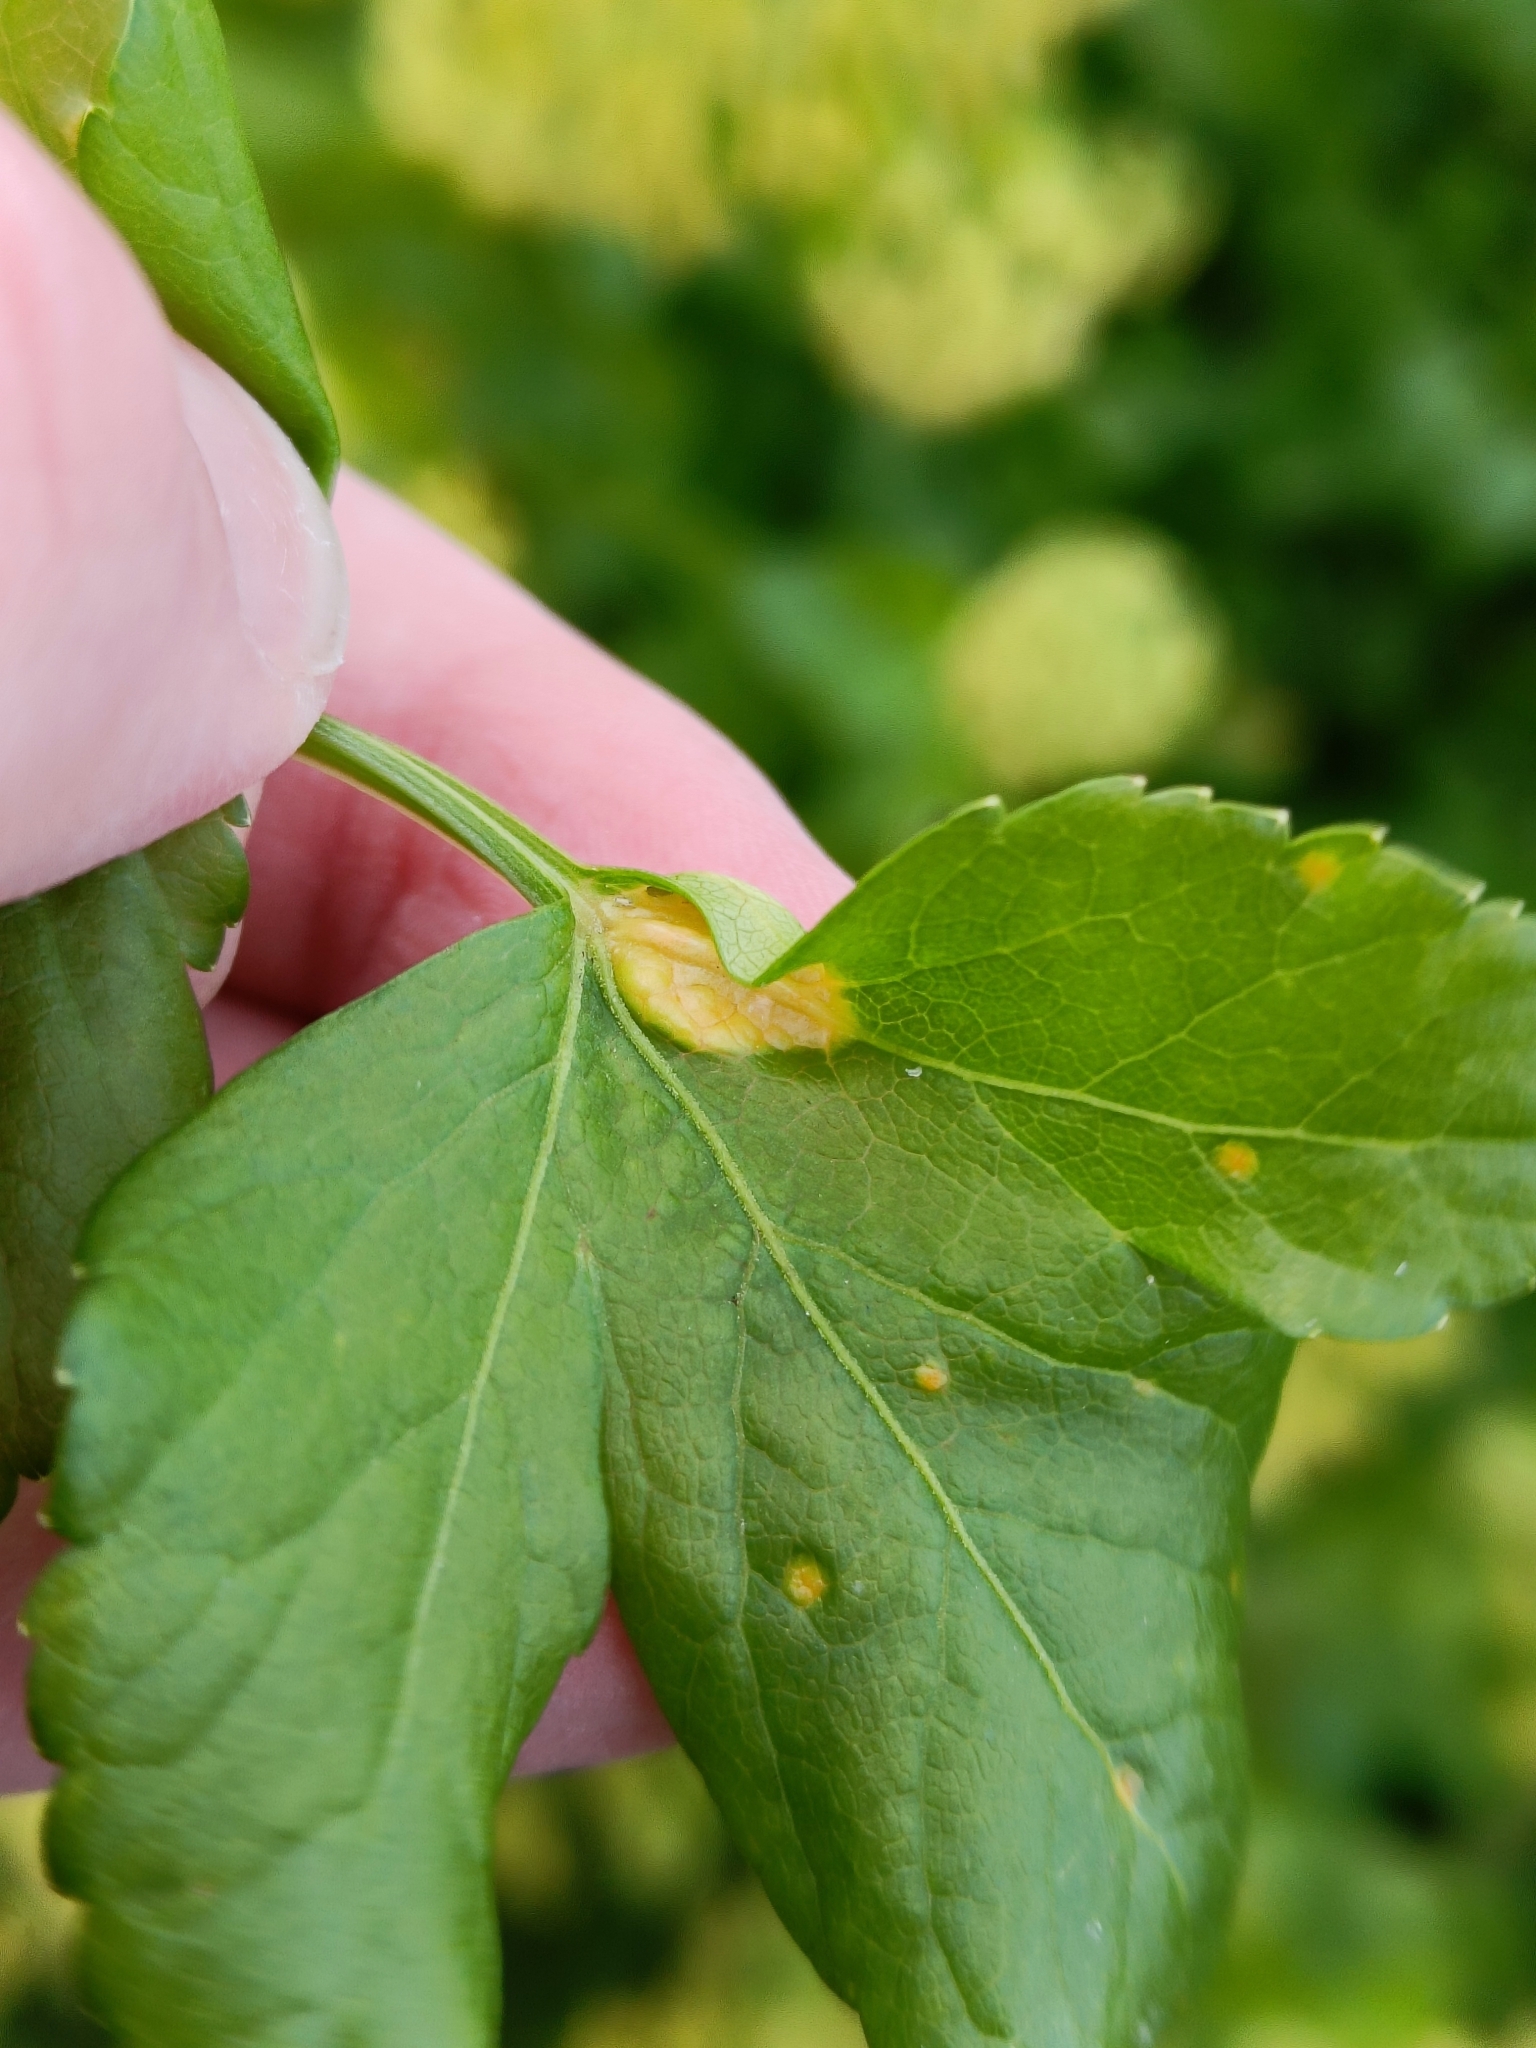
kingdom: Fungi
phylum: Basidiomycota
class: Pucciniomycetes
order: Pucciniales
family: Pucciniaceae
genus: Puccinia
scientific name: Puccinia smyrnii
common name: Alexanders rust
